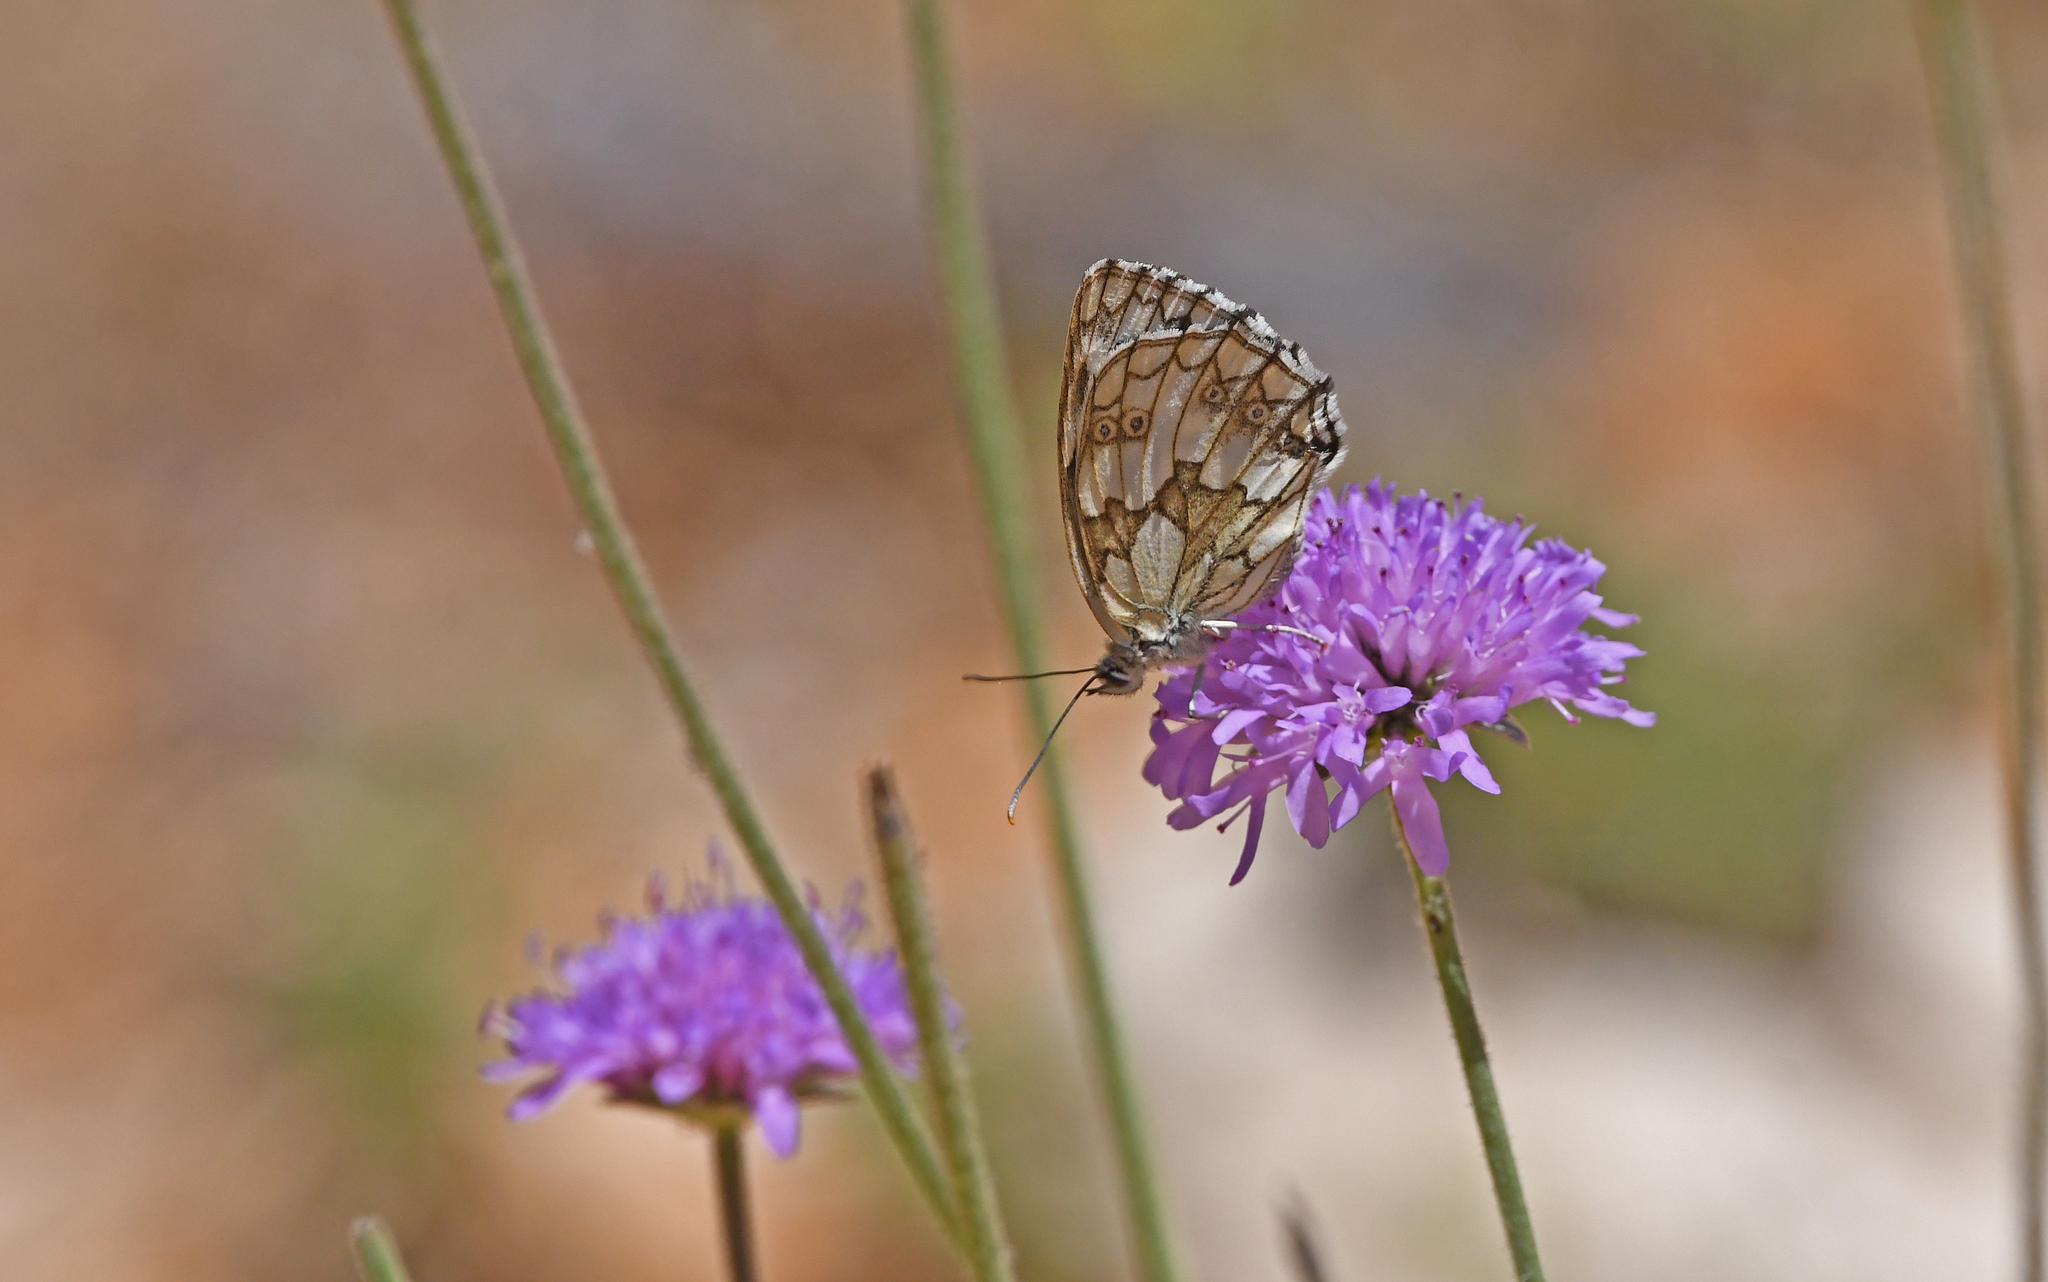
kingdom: Animalia
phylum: Arthropoda
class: Insecta
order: Lepidoptera
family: Nymphalidae
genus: Melanargia
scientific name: Melanargia galathea
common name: Marbled white
